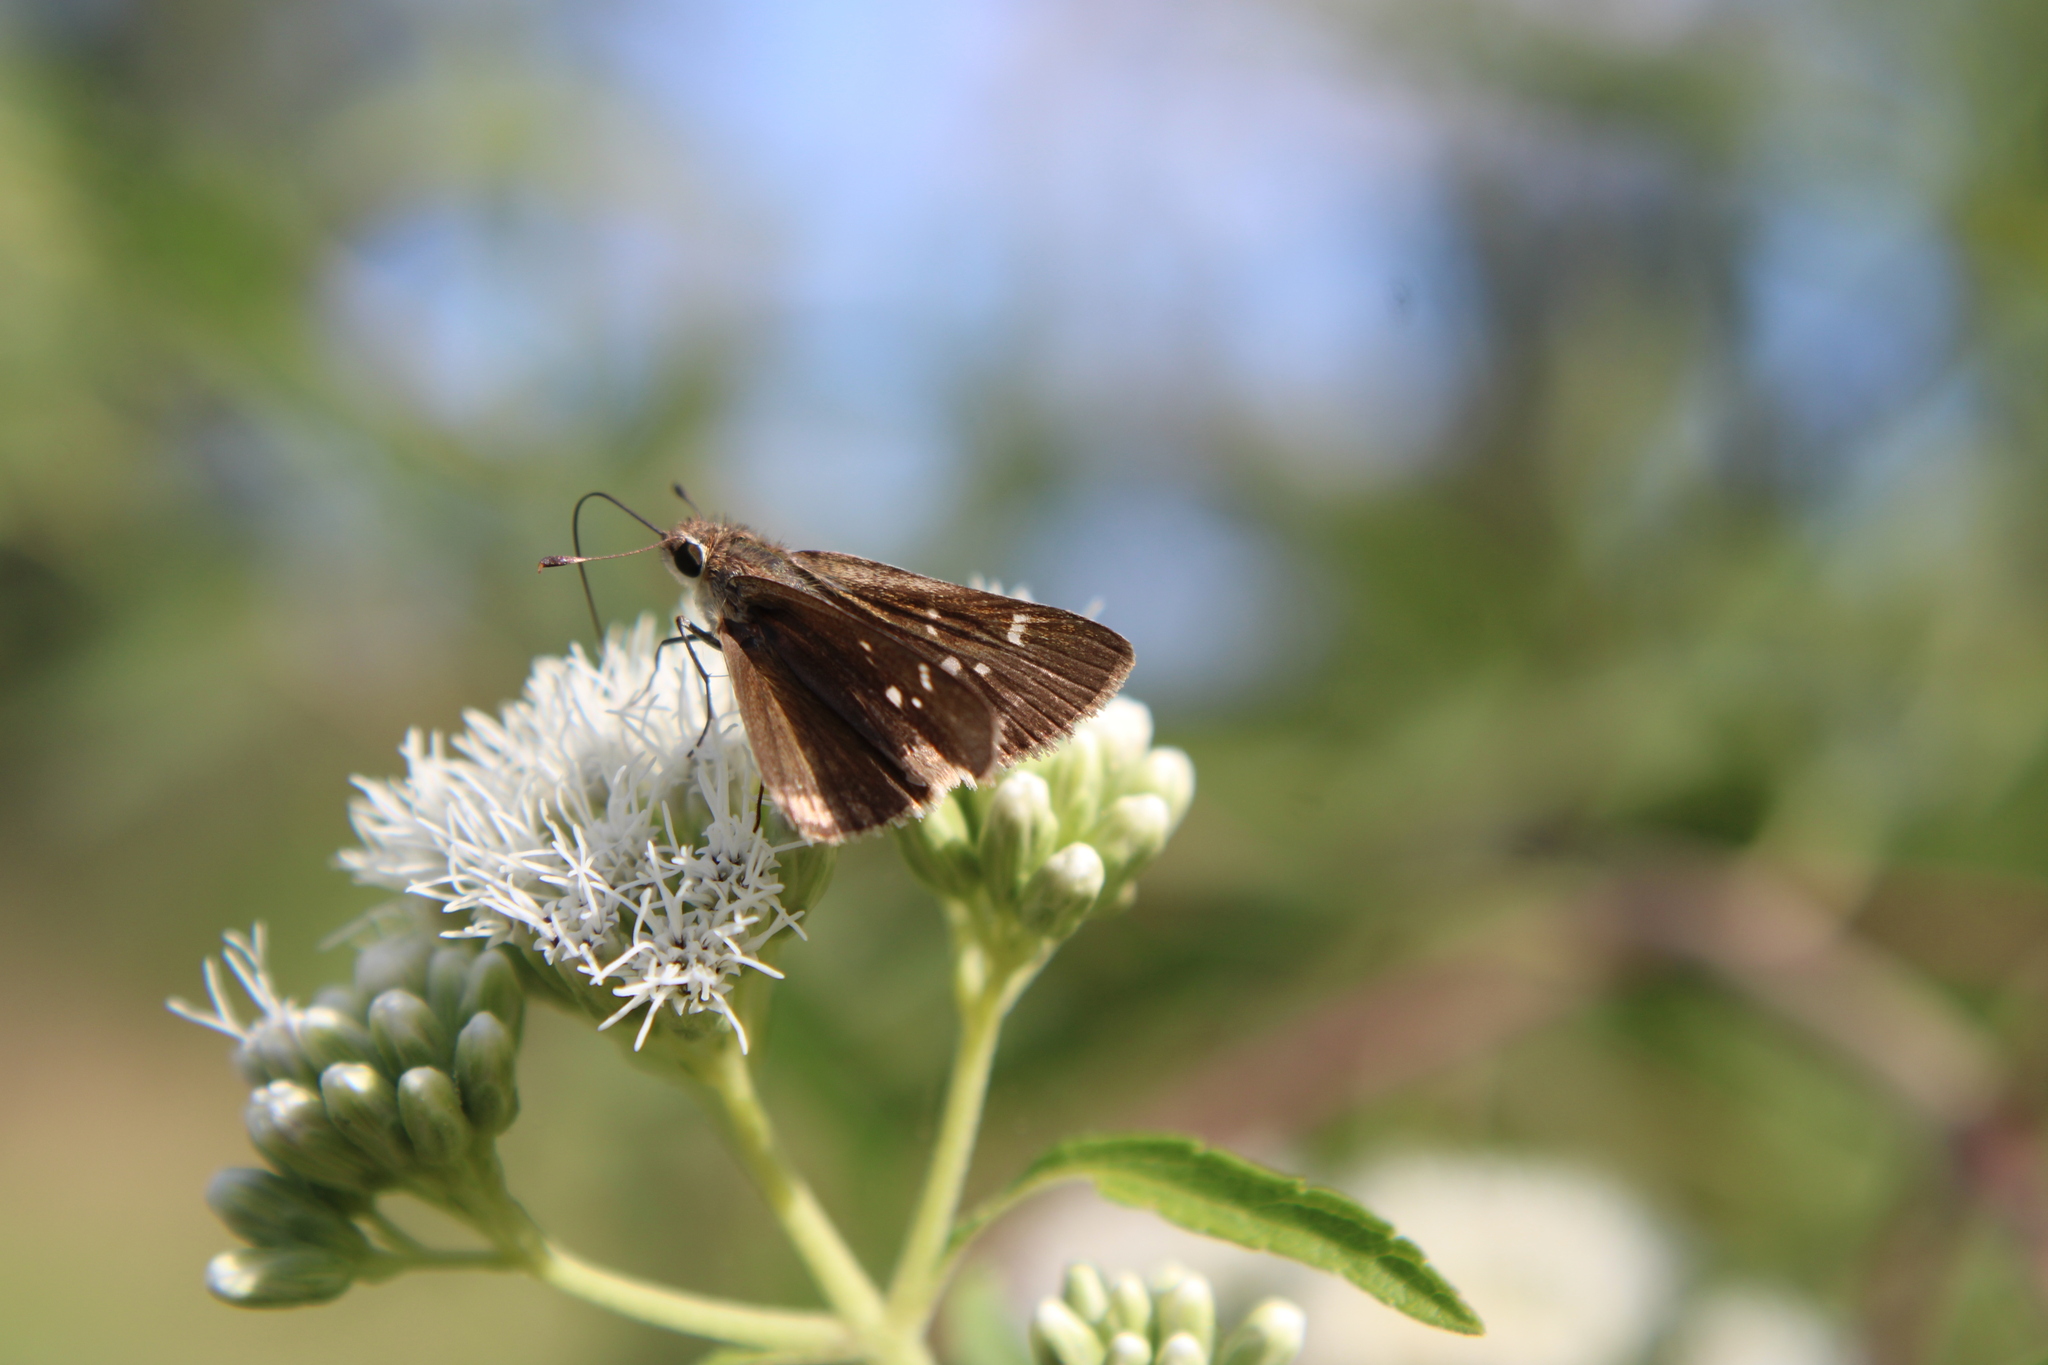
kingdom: Animalia
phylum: Arthropoda
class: Insecta
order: Lepidoptera
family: Hesperiidae
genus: Lerodea
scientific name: Lerodea eufala
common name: Eufala skipper
